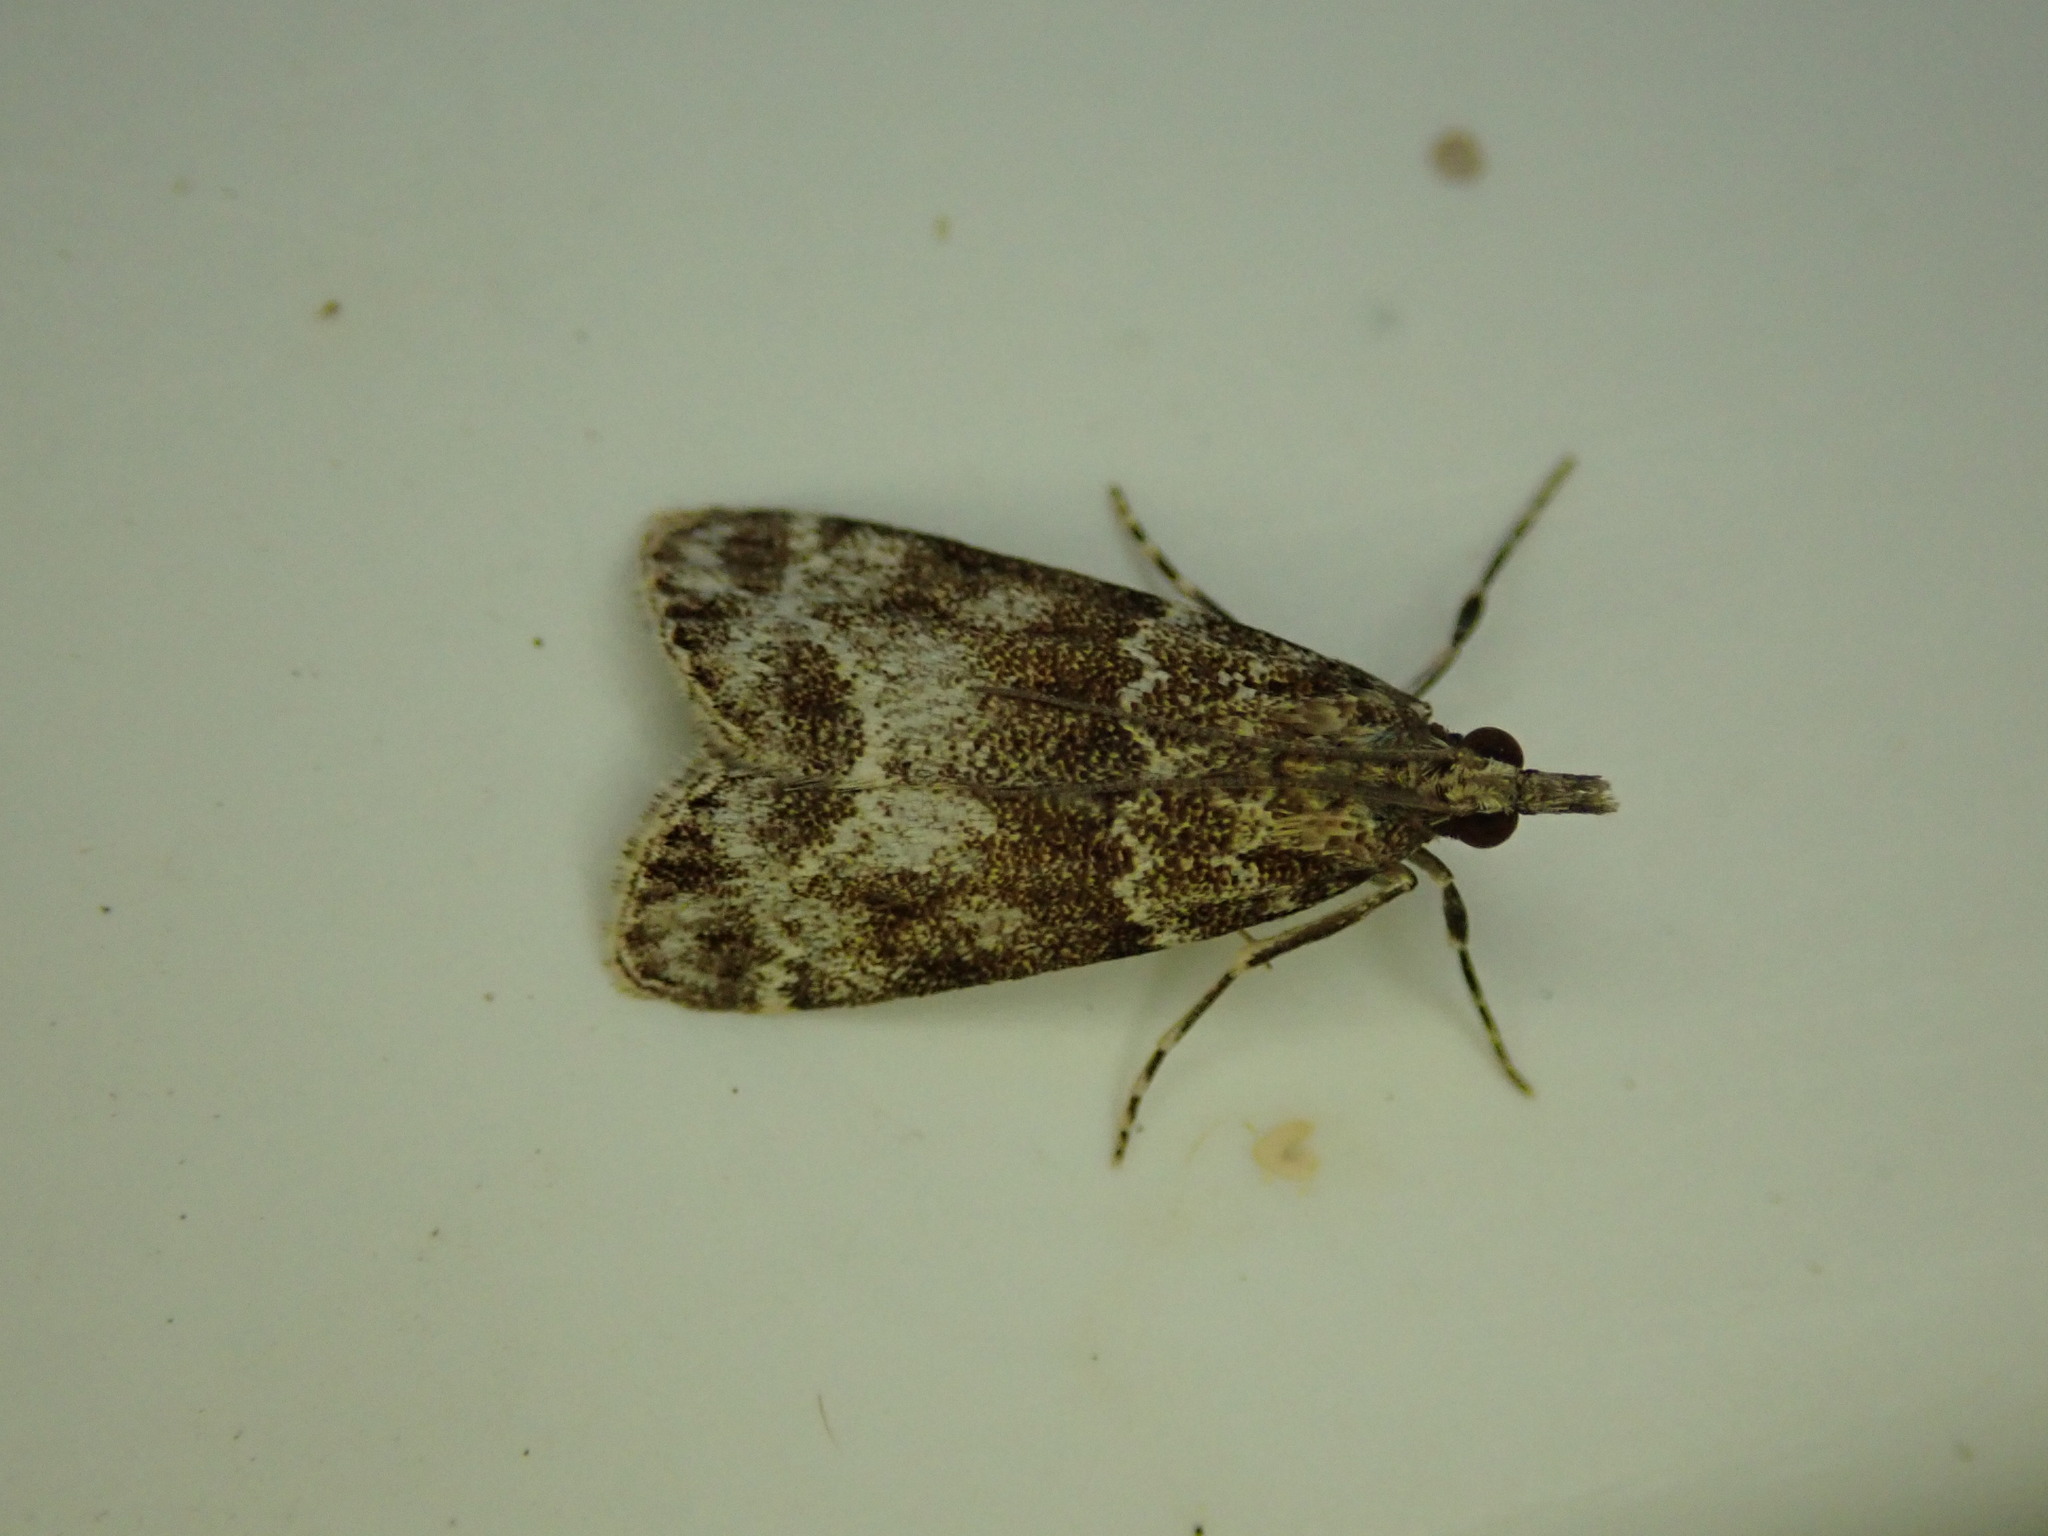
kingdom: Animalia
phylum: Arthropoda
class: Insecta
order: Lepidoptera
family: Crambidae
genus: Eudonia
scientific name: Eudonia mercurella
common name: Small grey
